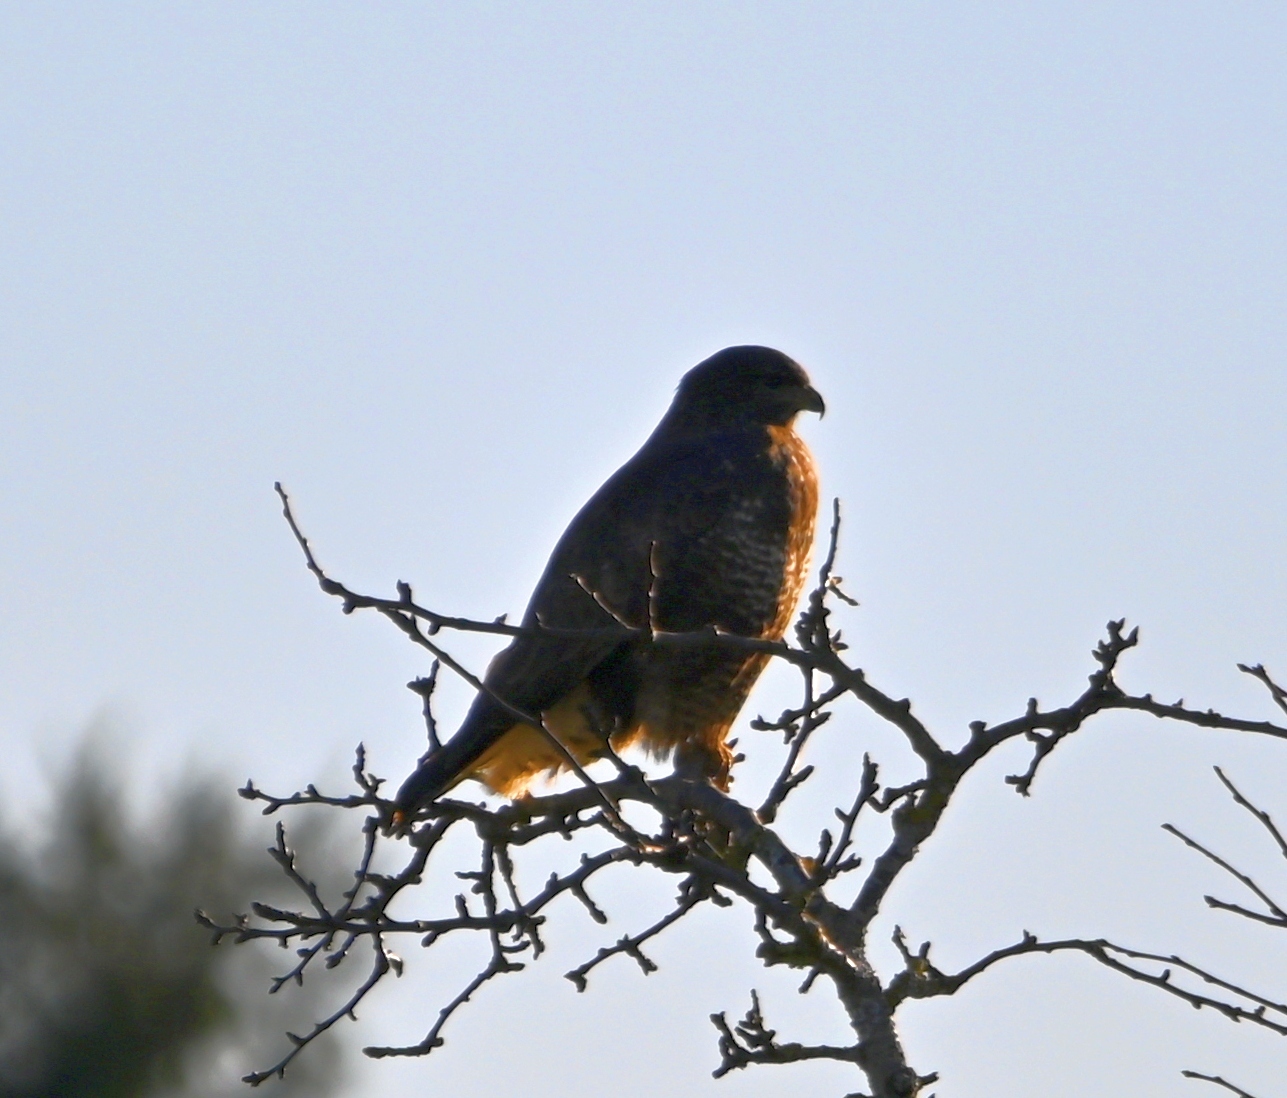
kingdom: Animalia
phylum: Chordata
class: Aves
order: Accipitriformes
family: Accipitridae
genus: Buteo
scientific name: Buteo buteo
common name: Common buzzard
